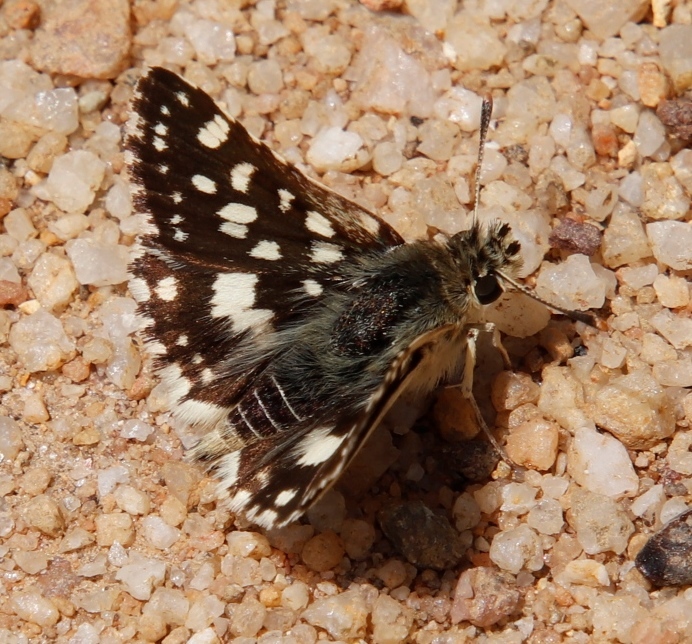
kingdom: Animalia
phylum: Arthropoda
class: Insecta
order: Lepidoptera
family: Hesperiidae
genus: Spialia
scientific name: Spialia spio
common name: Mountain sandman
